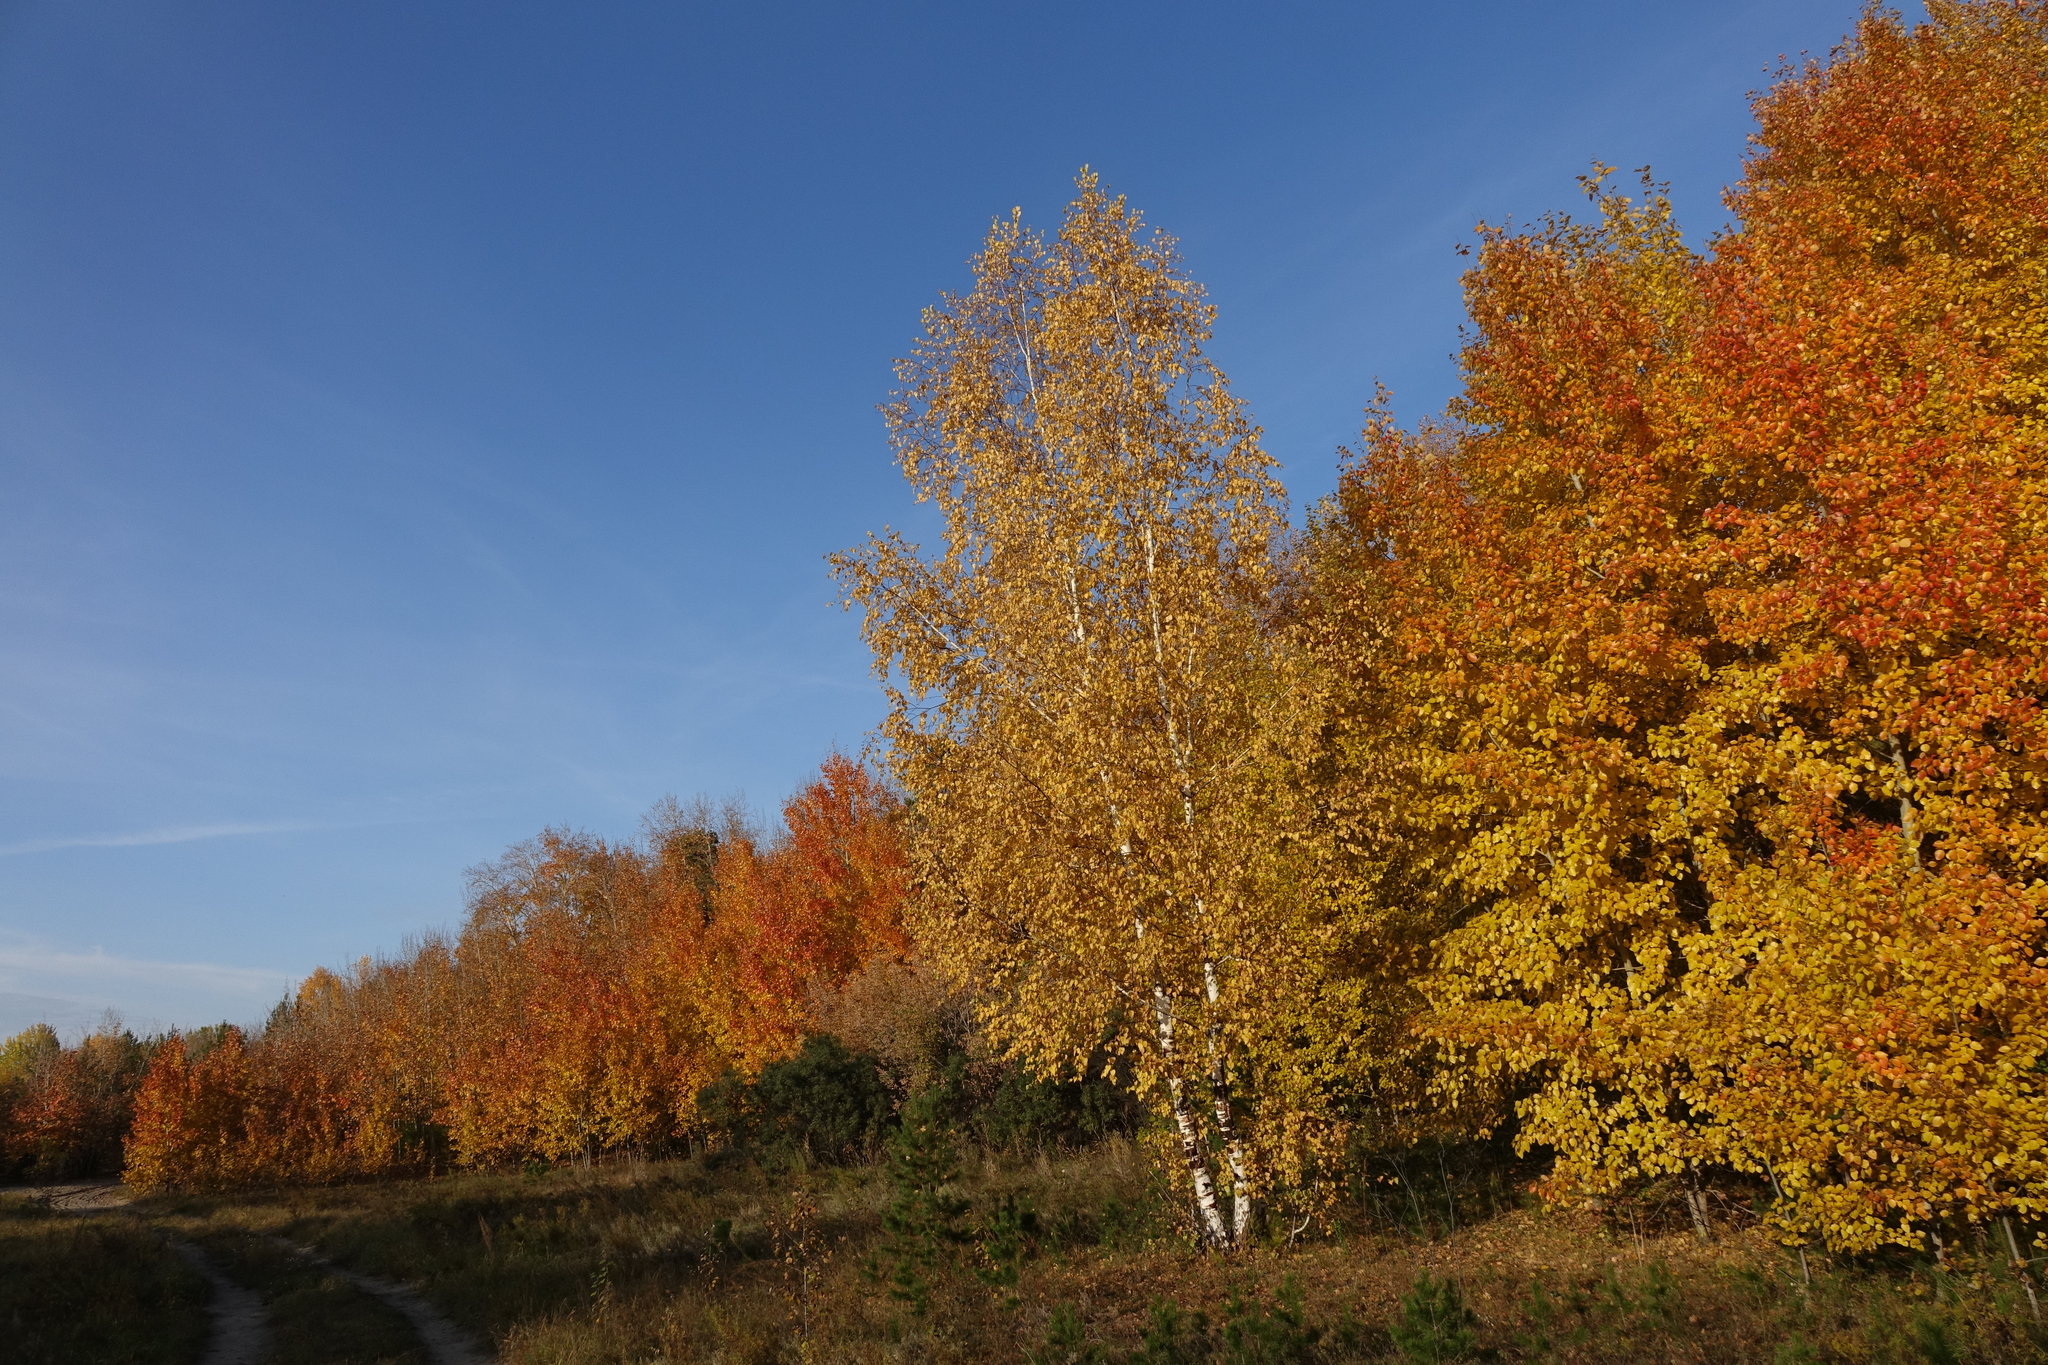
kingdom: Plantae
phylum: Tracheophyta
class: Magnoliopsida
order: Malpighiales
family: Salicaceae
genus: Populus
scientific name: Populus tremula
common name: European aspen
